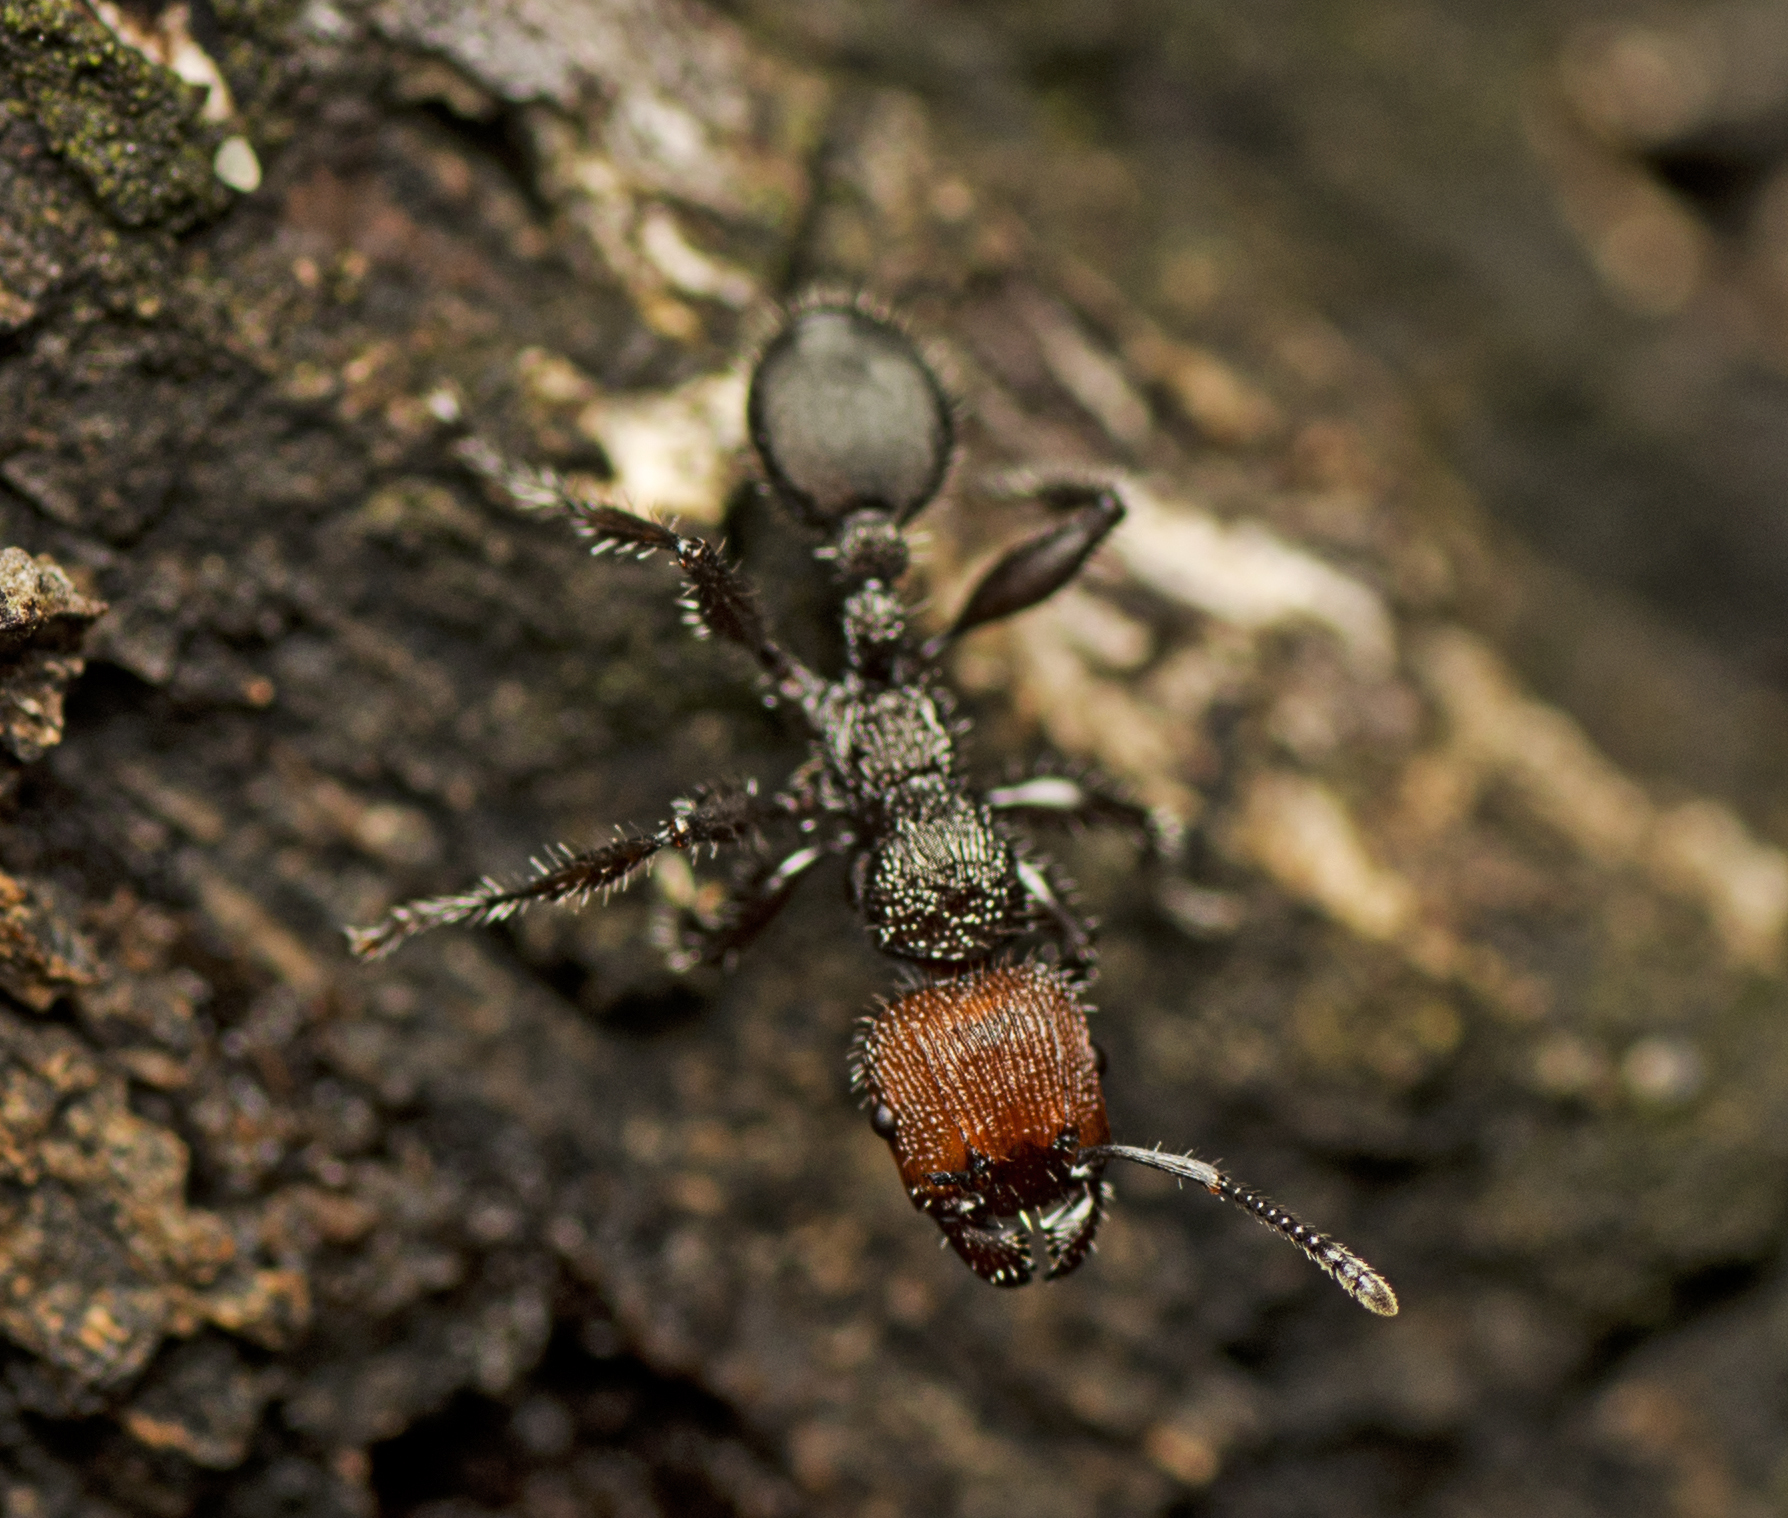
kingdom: Animalia
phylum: Arthropoda
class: Insecta
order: Hymenoptera
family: Formicidae
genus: Podomyrma
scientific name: Podomyrma micans
